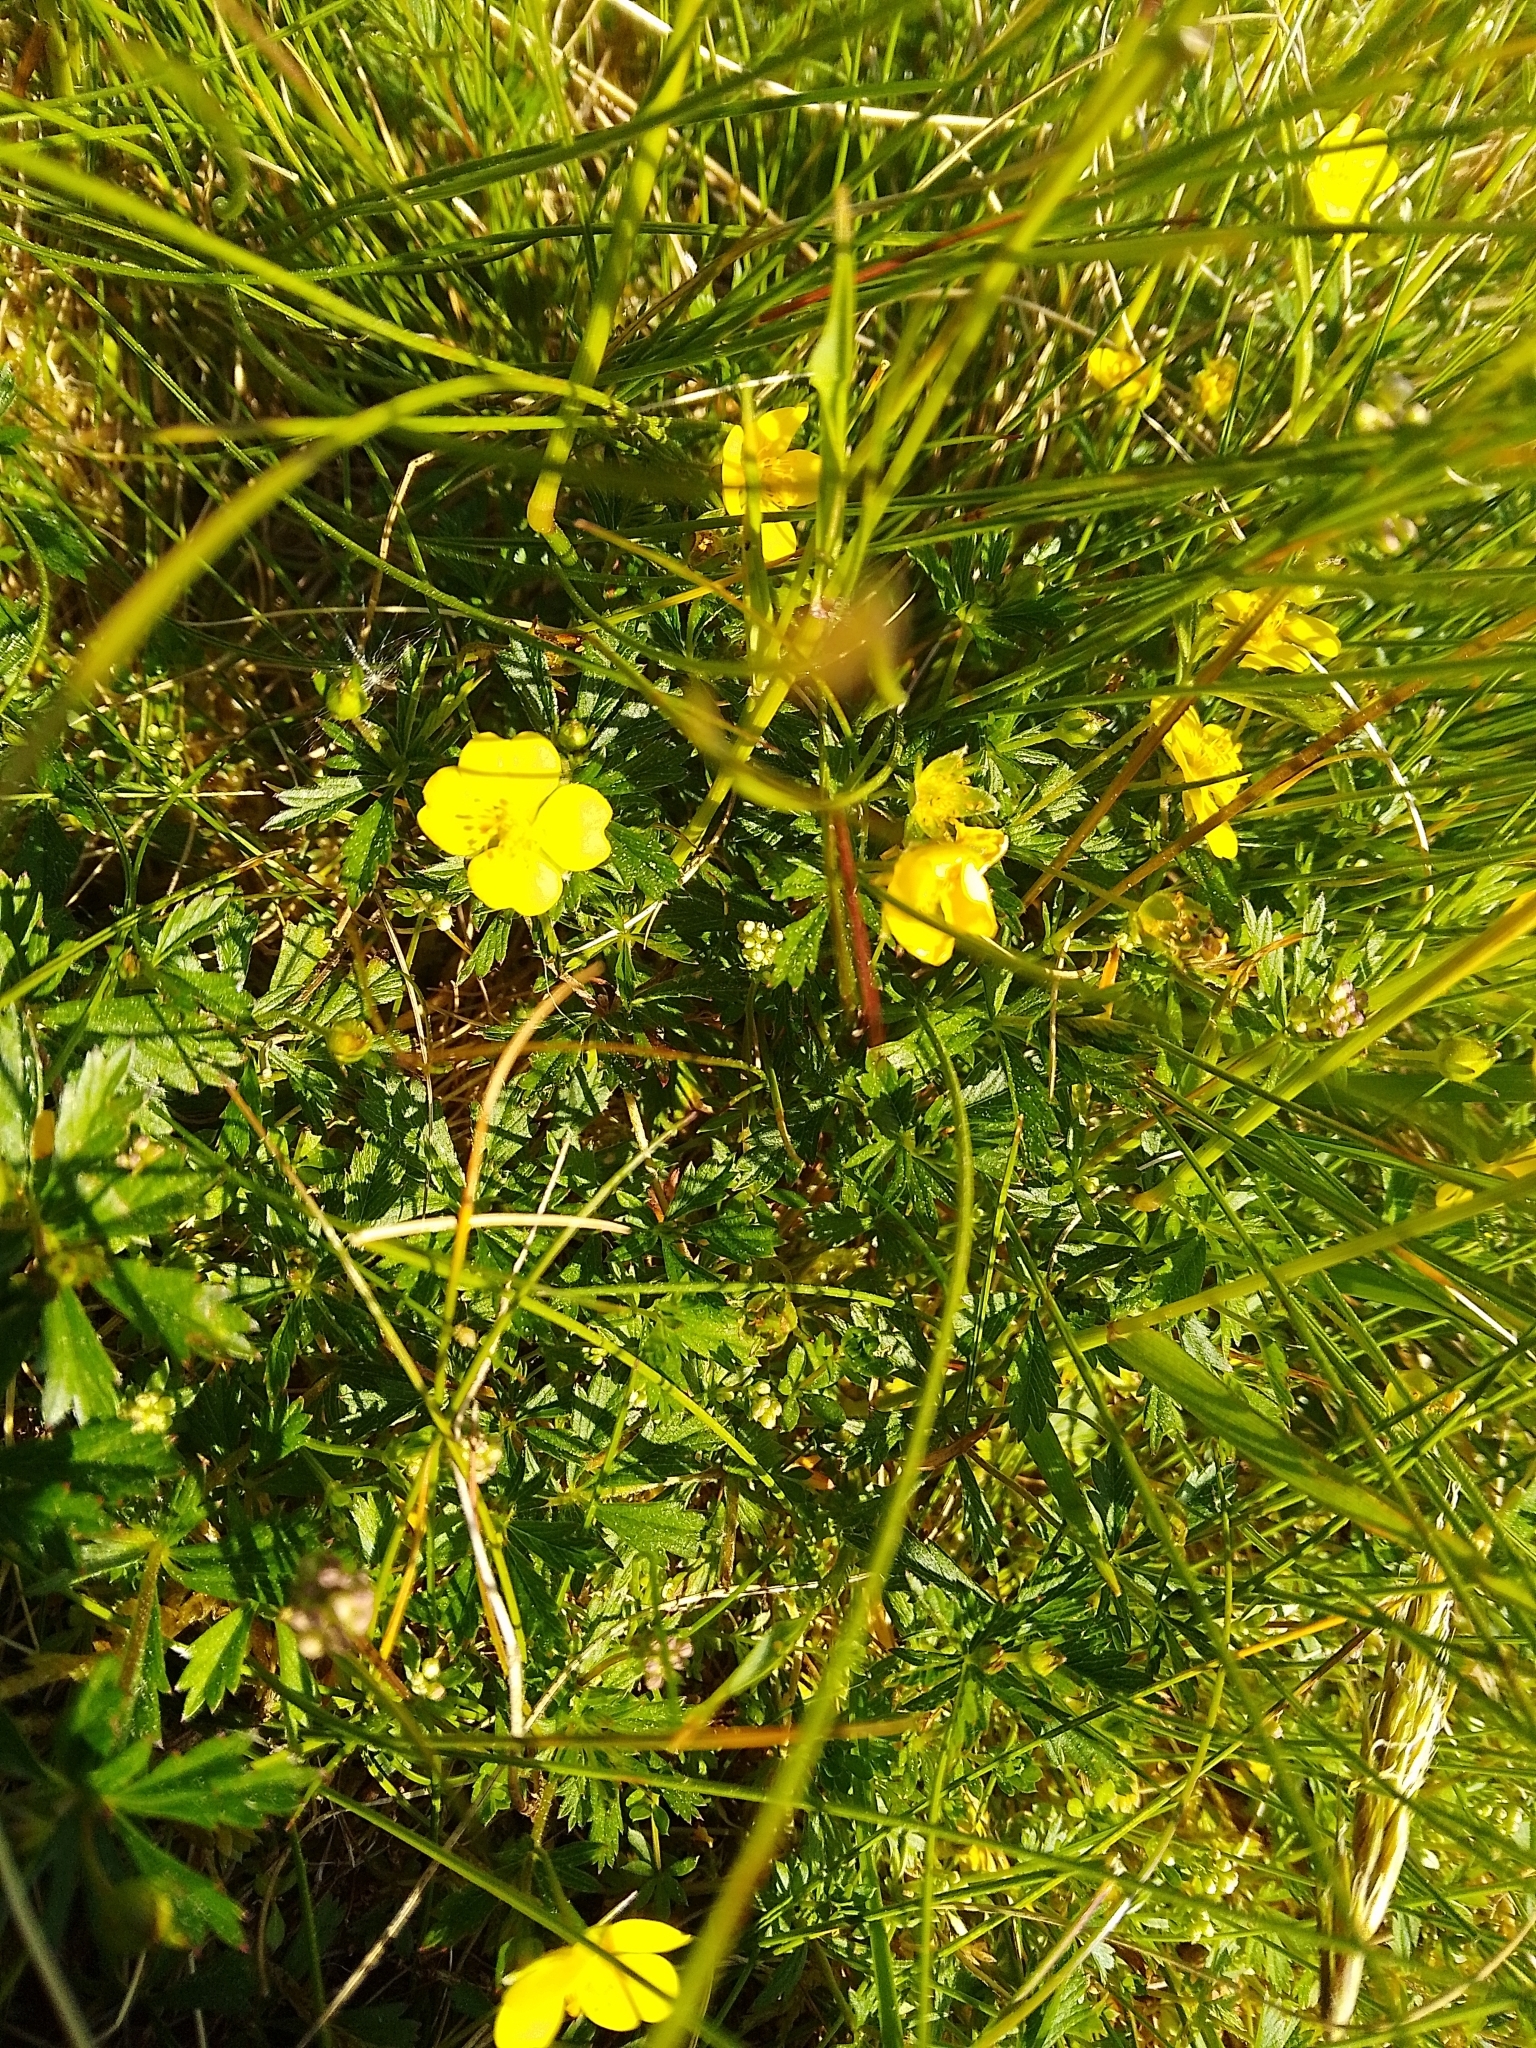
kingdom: Plantae
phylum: Tracheophyta
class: Magnoliopsida
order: Rosales
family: Rosaceae
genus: Potentilla
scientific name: Potentilla erecta
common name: Tormentil
